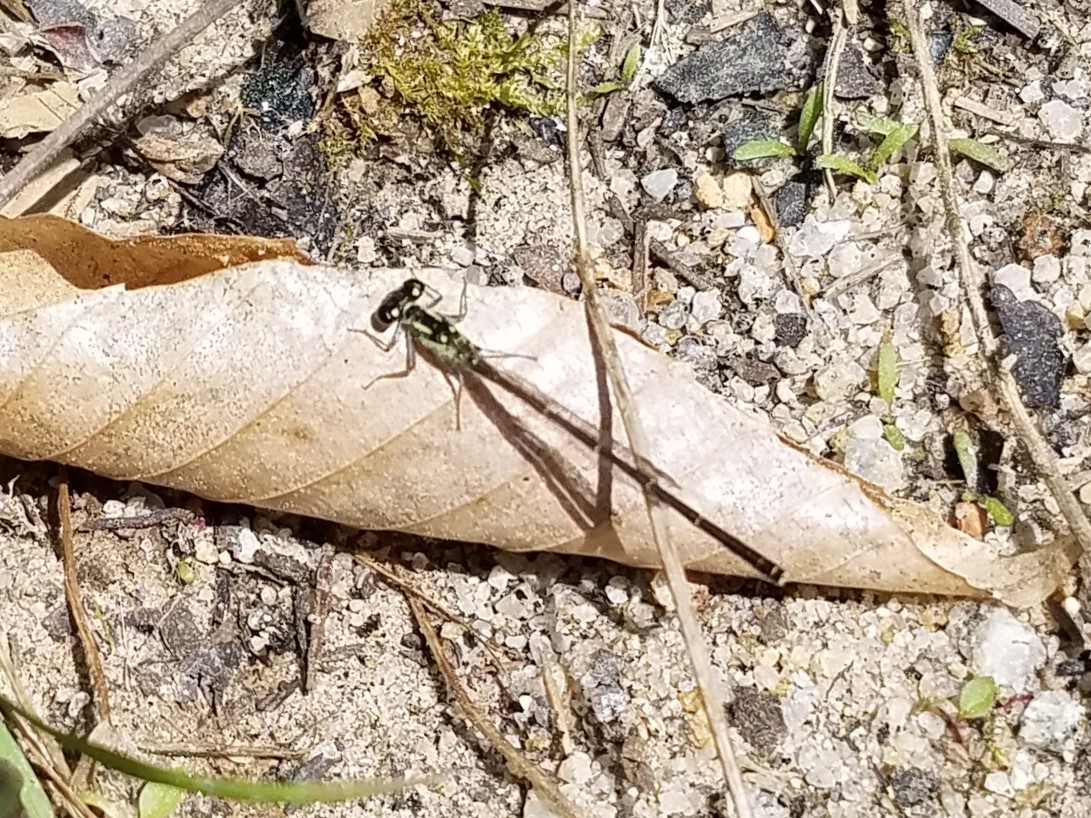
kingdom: Animalia
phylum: Arthropoda
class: Insecta
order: Odonata
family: Coenagrionidae
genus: Ischnura
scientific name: Ischnura posita
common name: Fragile forktail
